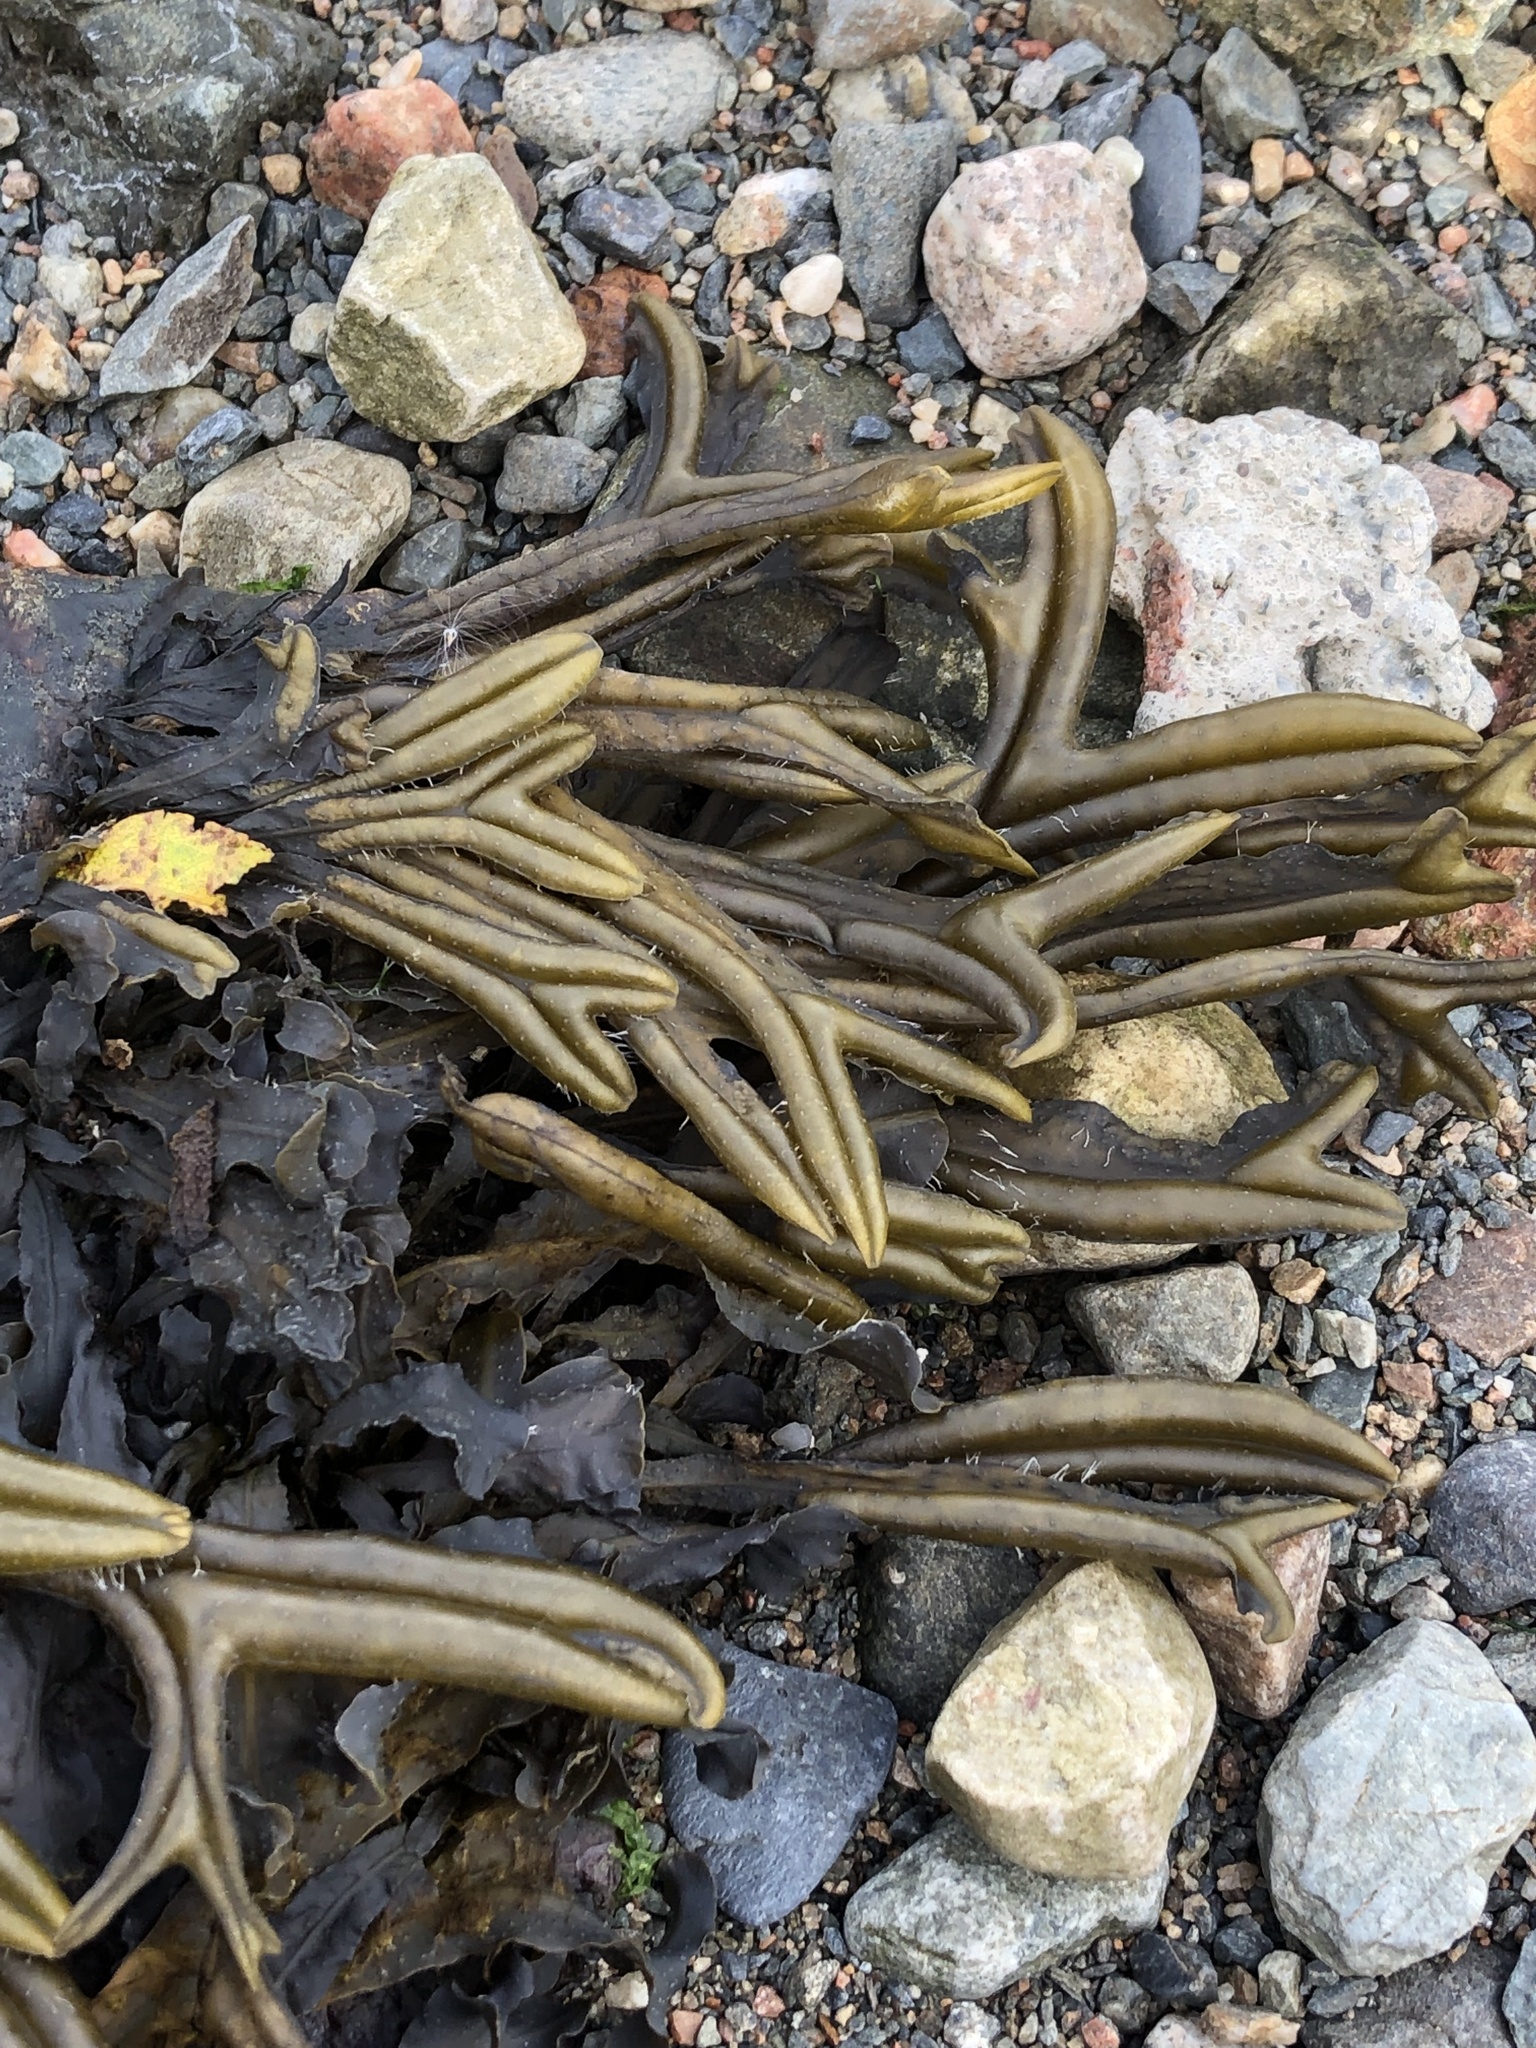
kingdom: Chromista
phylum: Ochrophyta
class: Phaeophyceae
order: Fucales
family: Fucaceae
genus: Fucus
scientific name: Fucus ceranoides
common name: Horned wrack
